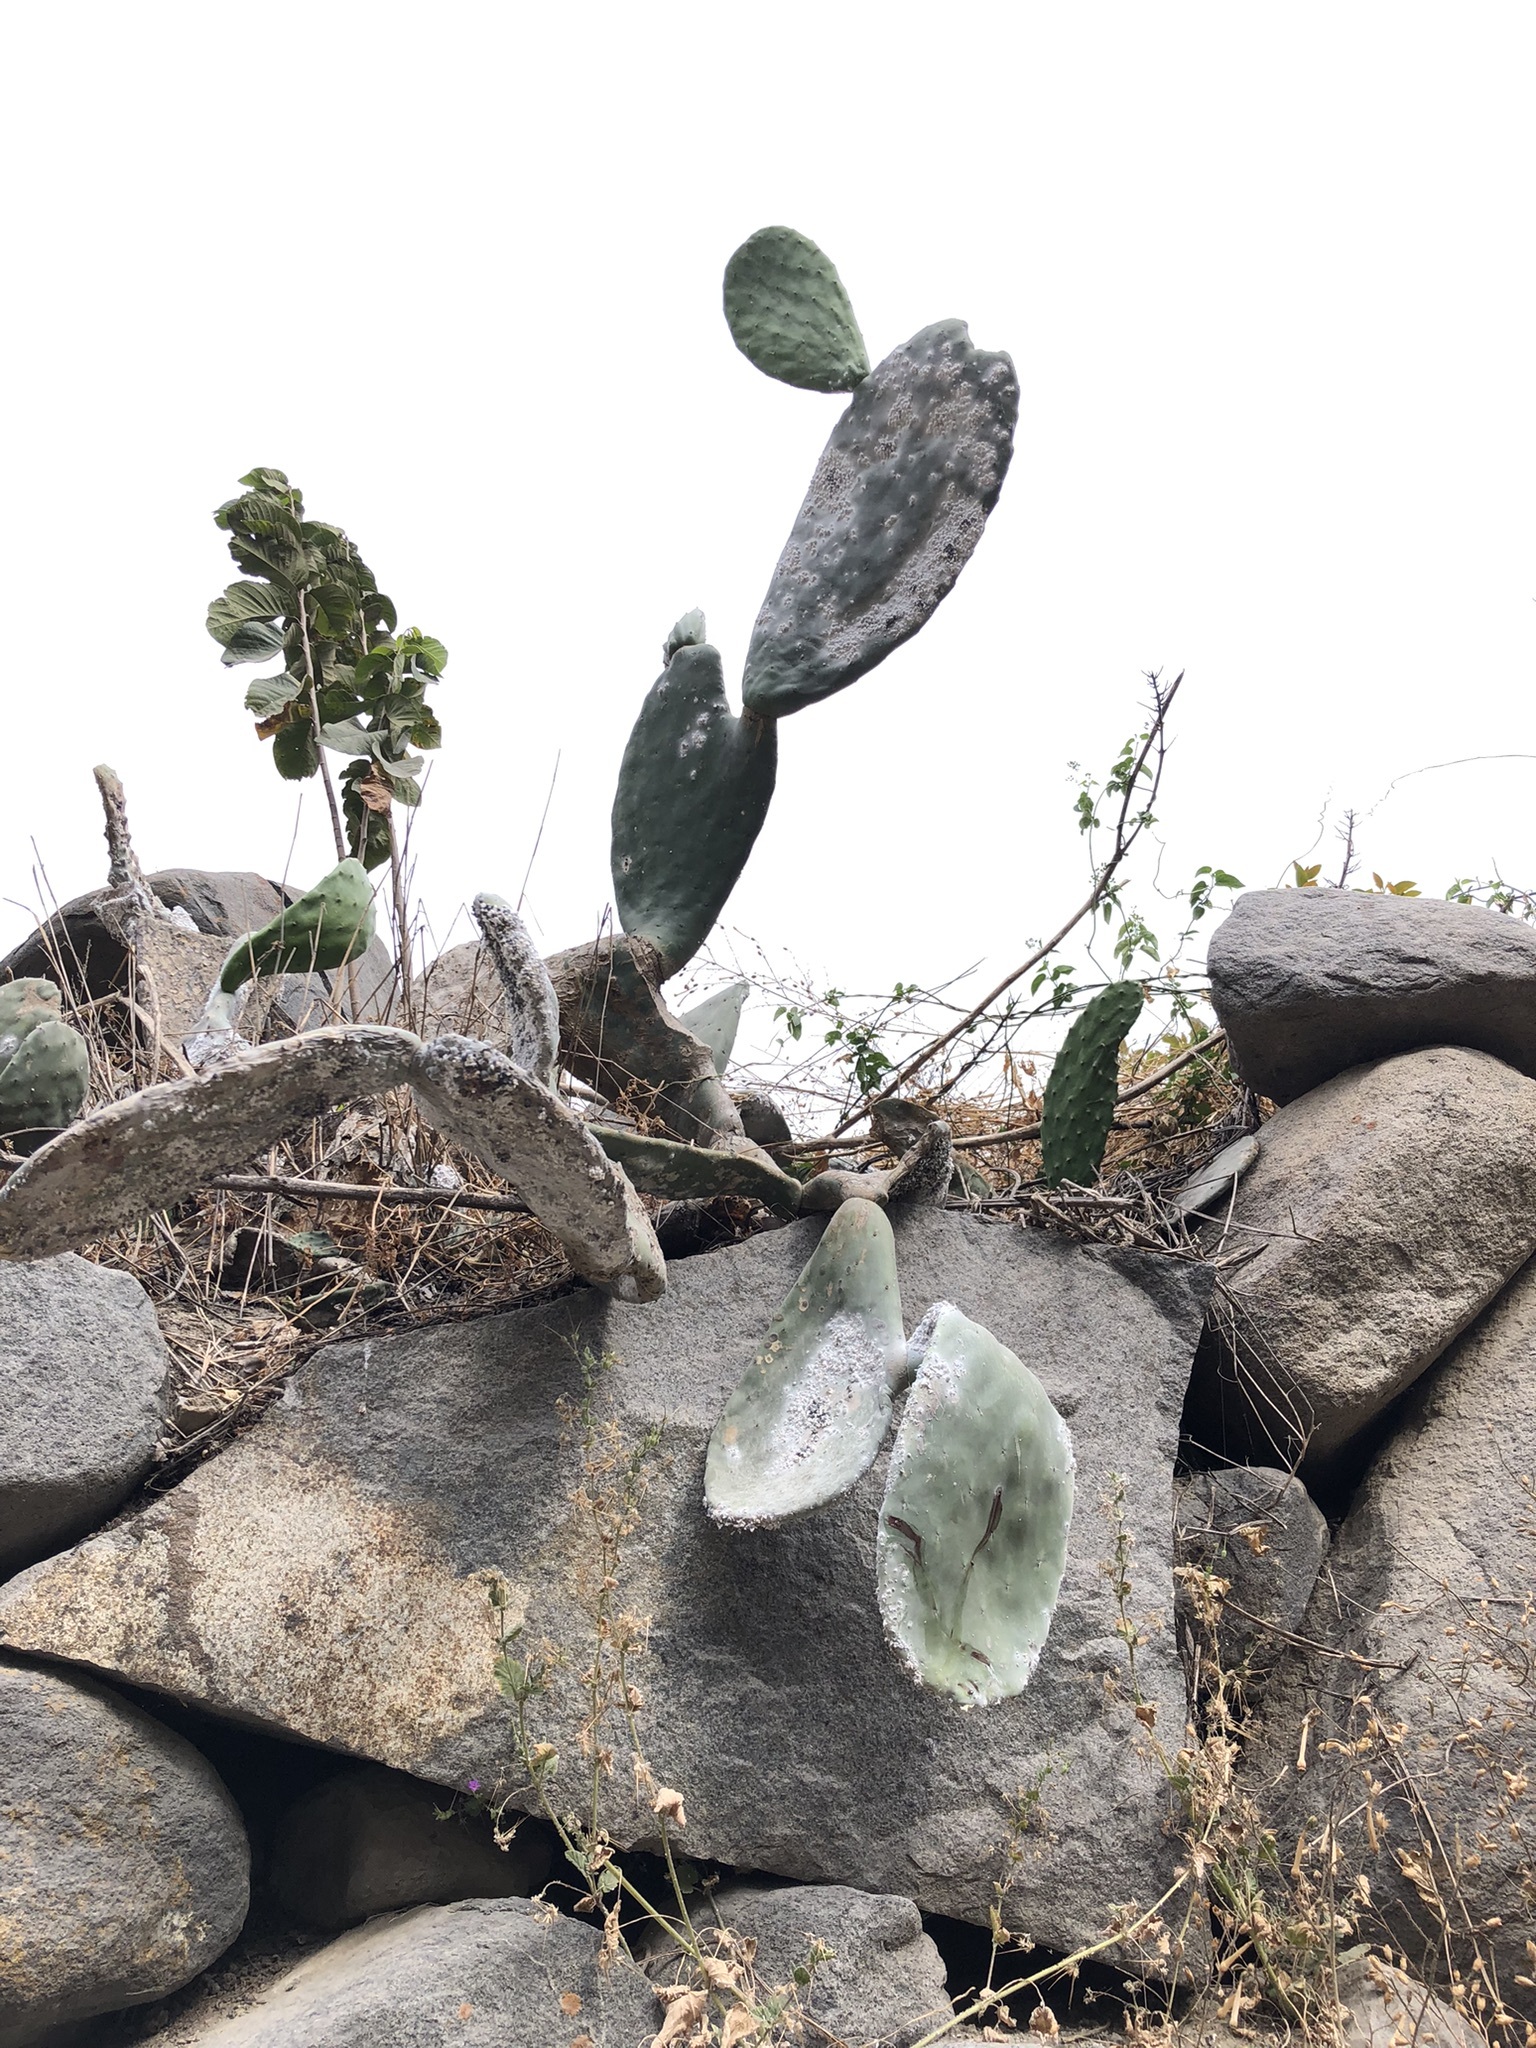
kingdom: Plantae
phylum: Tracheophyta
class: Magnoliopsida
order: Caryophyllales
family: Cactaceae
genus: Opuntia
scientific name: Opuntia ficus-indica
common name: Barbary fig
